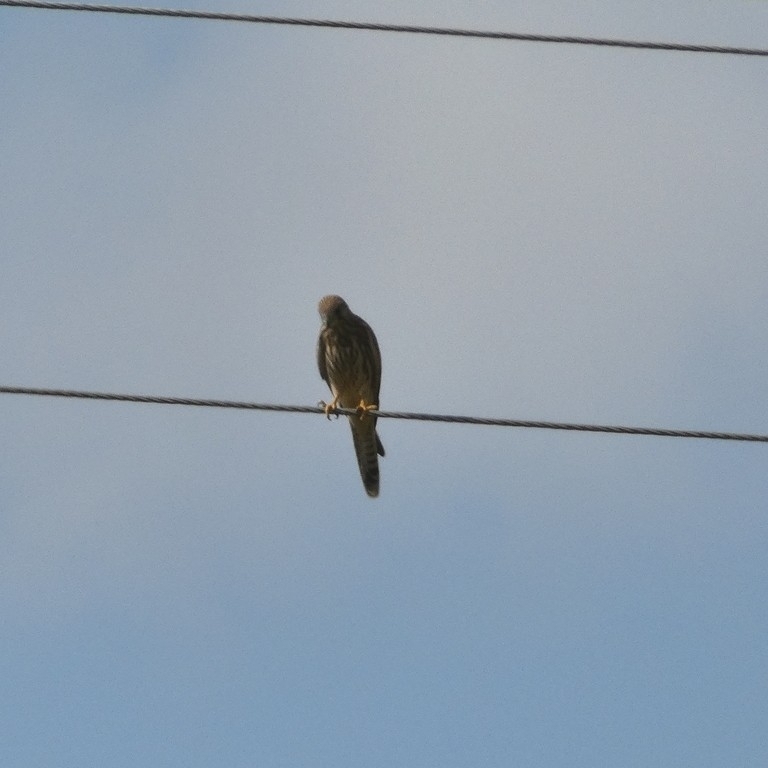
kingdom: Animalia
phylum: Chordata
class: Aves
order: Falconiformes
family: Falconidae
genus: Falco
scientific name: Falco tinnunculus
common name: Common kestrel
